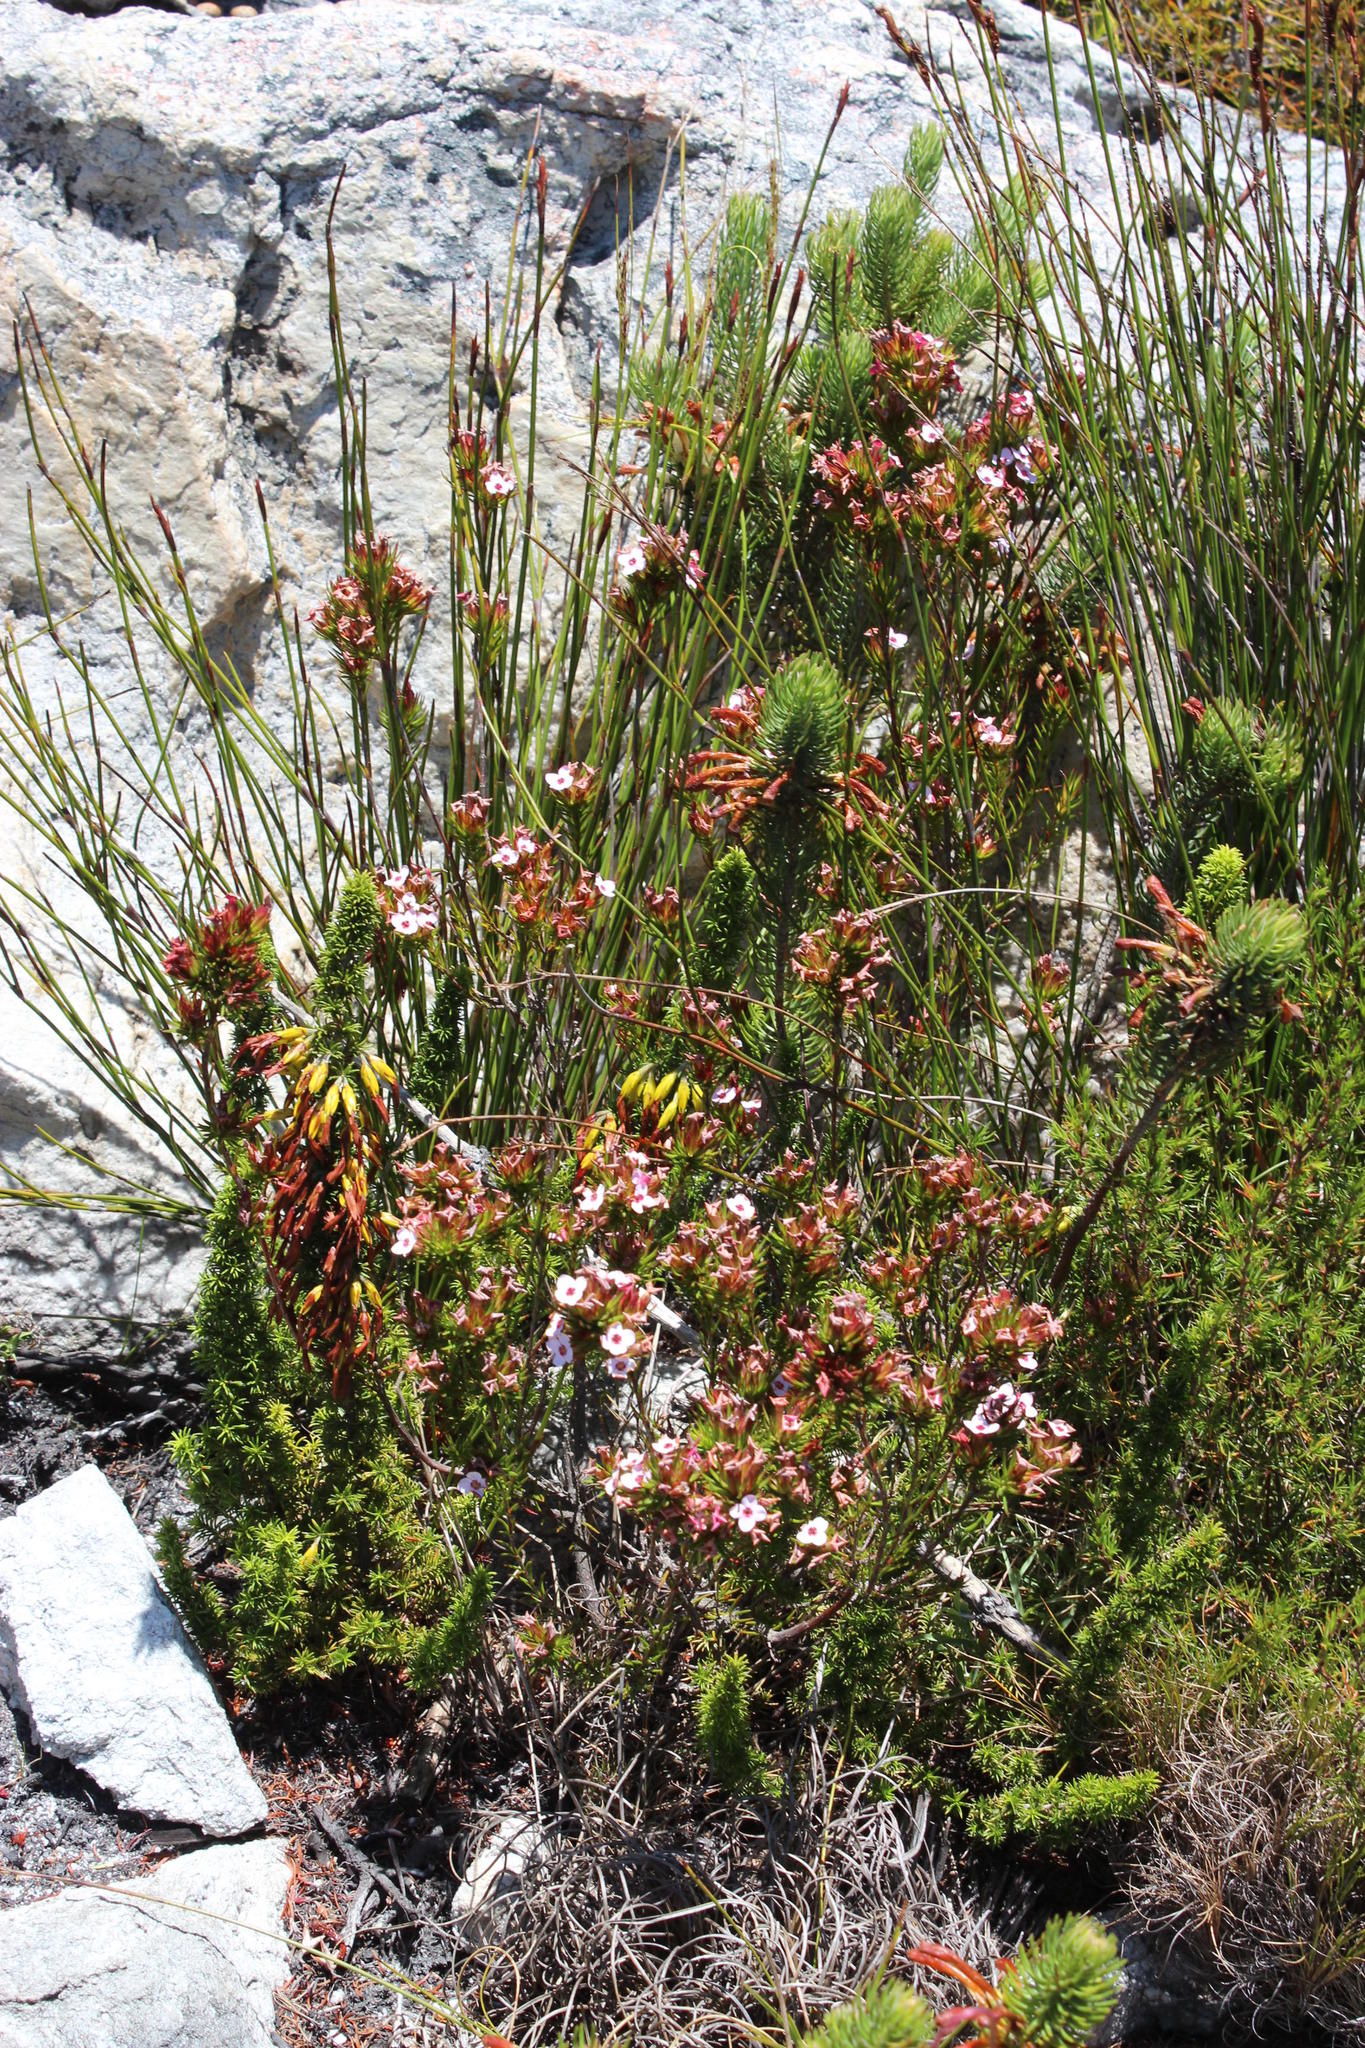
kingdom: Plantae
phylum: Tracheophyta
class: Magnoliopsida
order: Ericales
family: Ericaceae
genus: Erica
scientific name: Erica fastigiata
